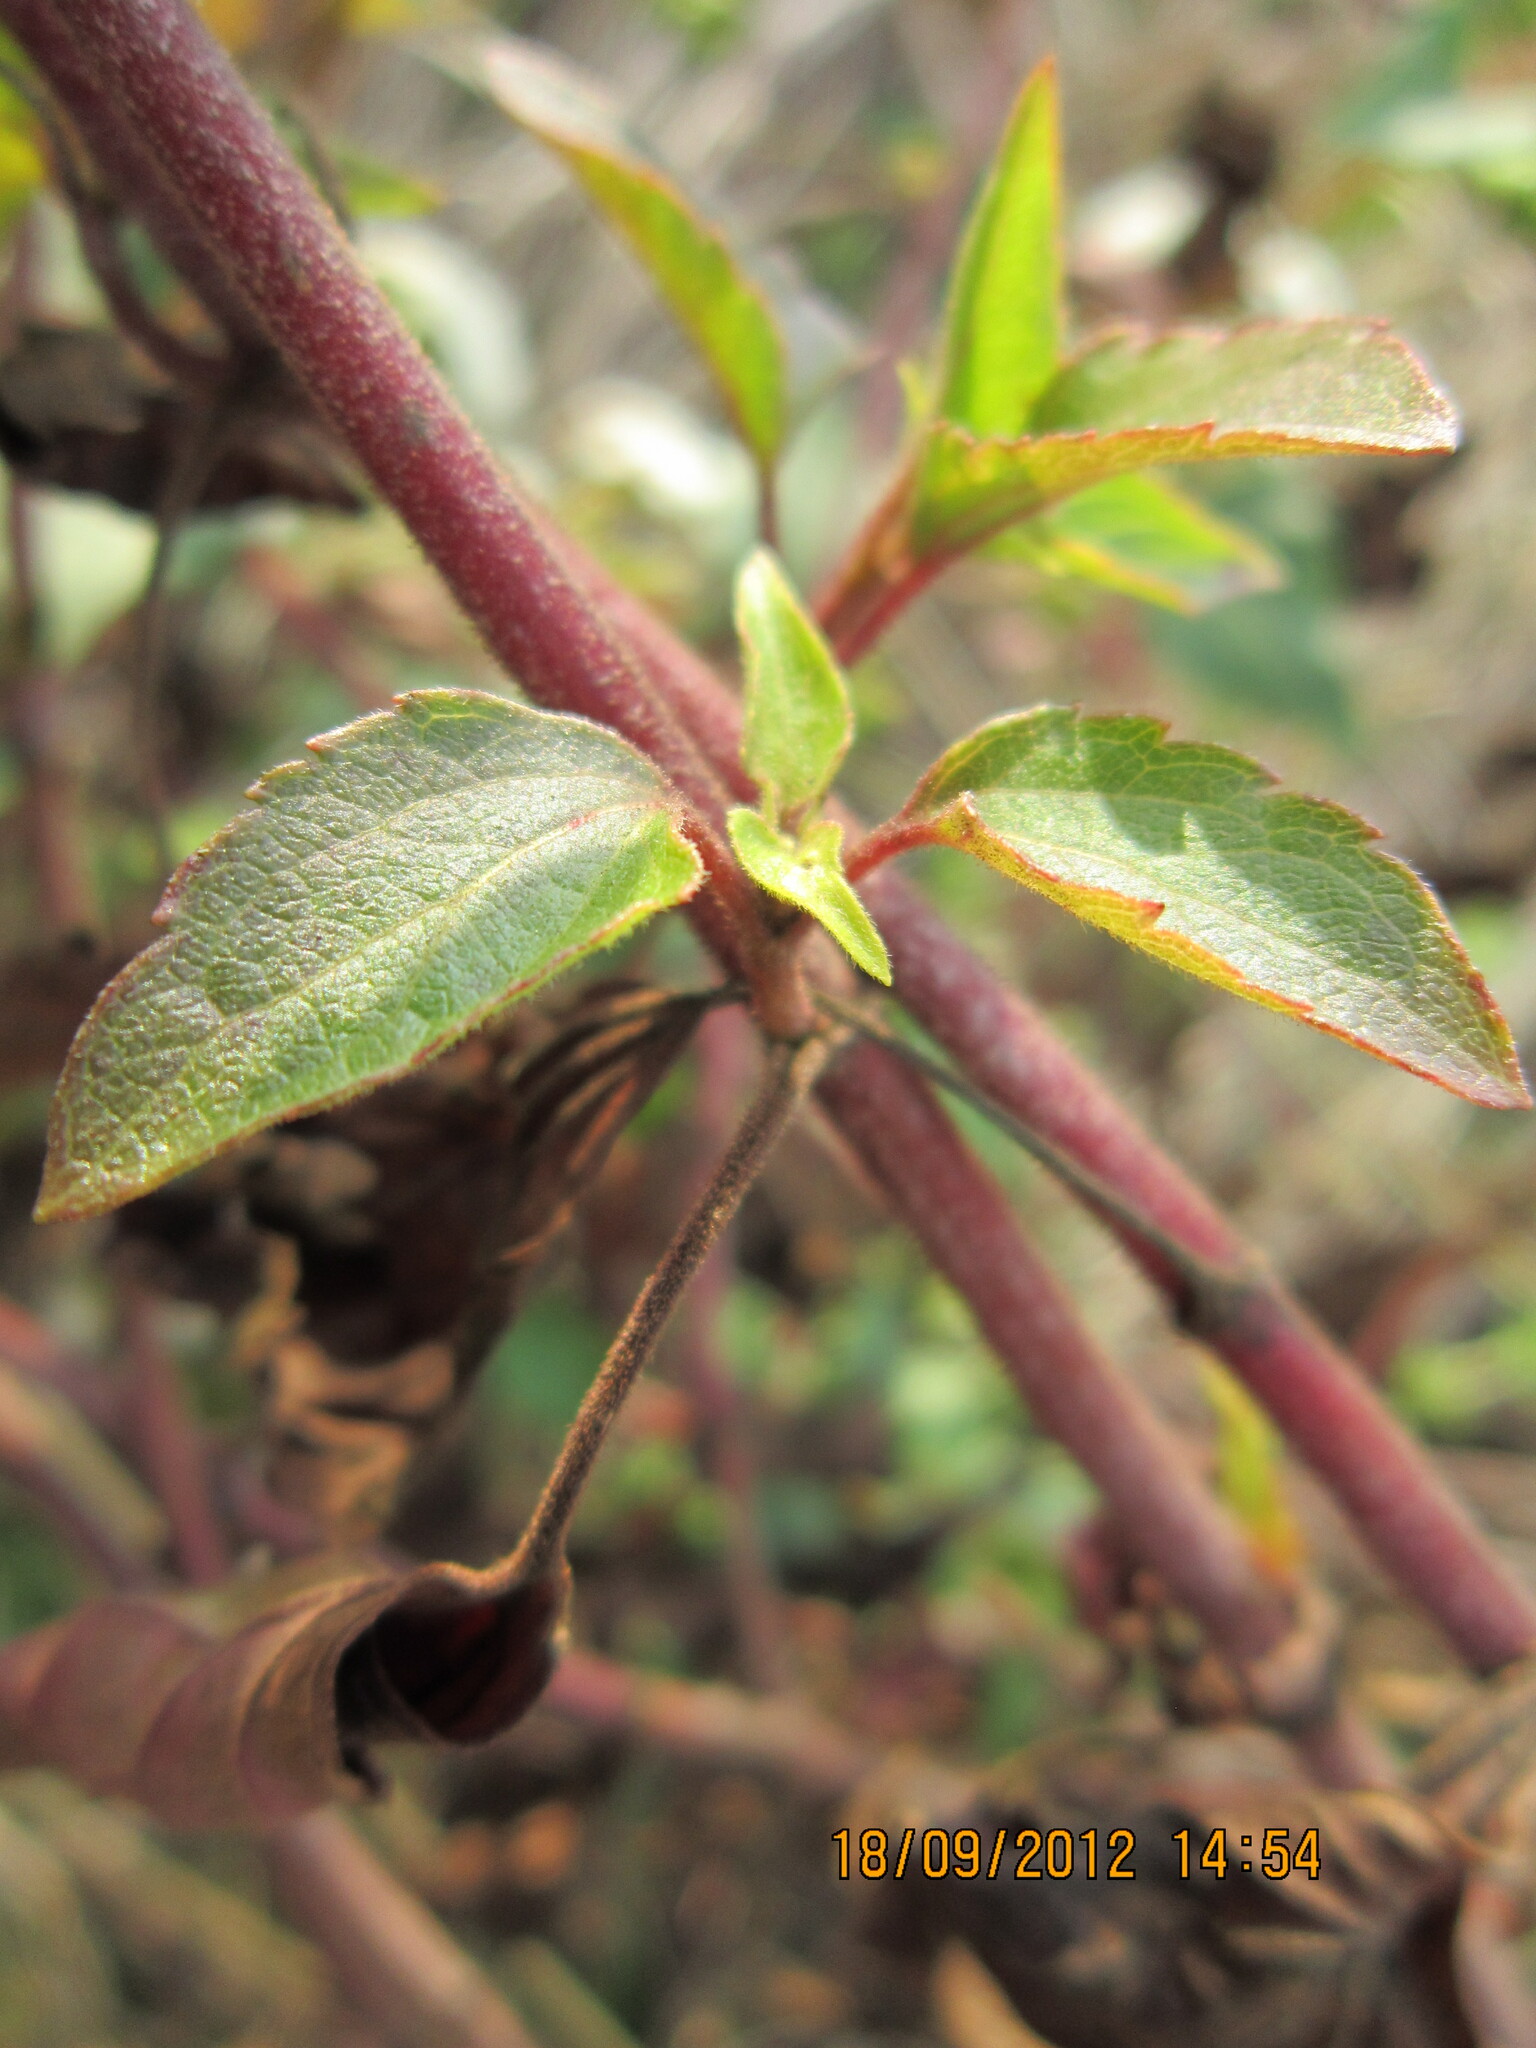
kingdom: Plantae
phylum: Tracheophyta
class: Magnoliopsida
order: Asterales
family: Asteraceae
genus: Ageratina
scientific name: Ageratina adenophora
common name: Sticky snakeroot
